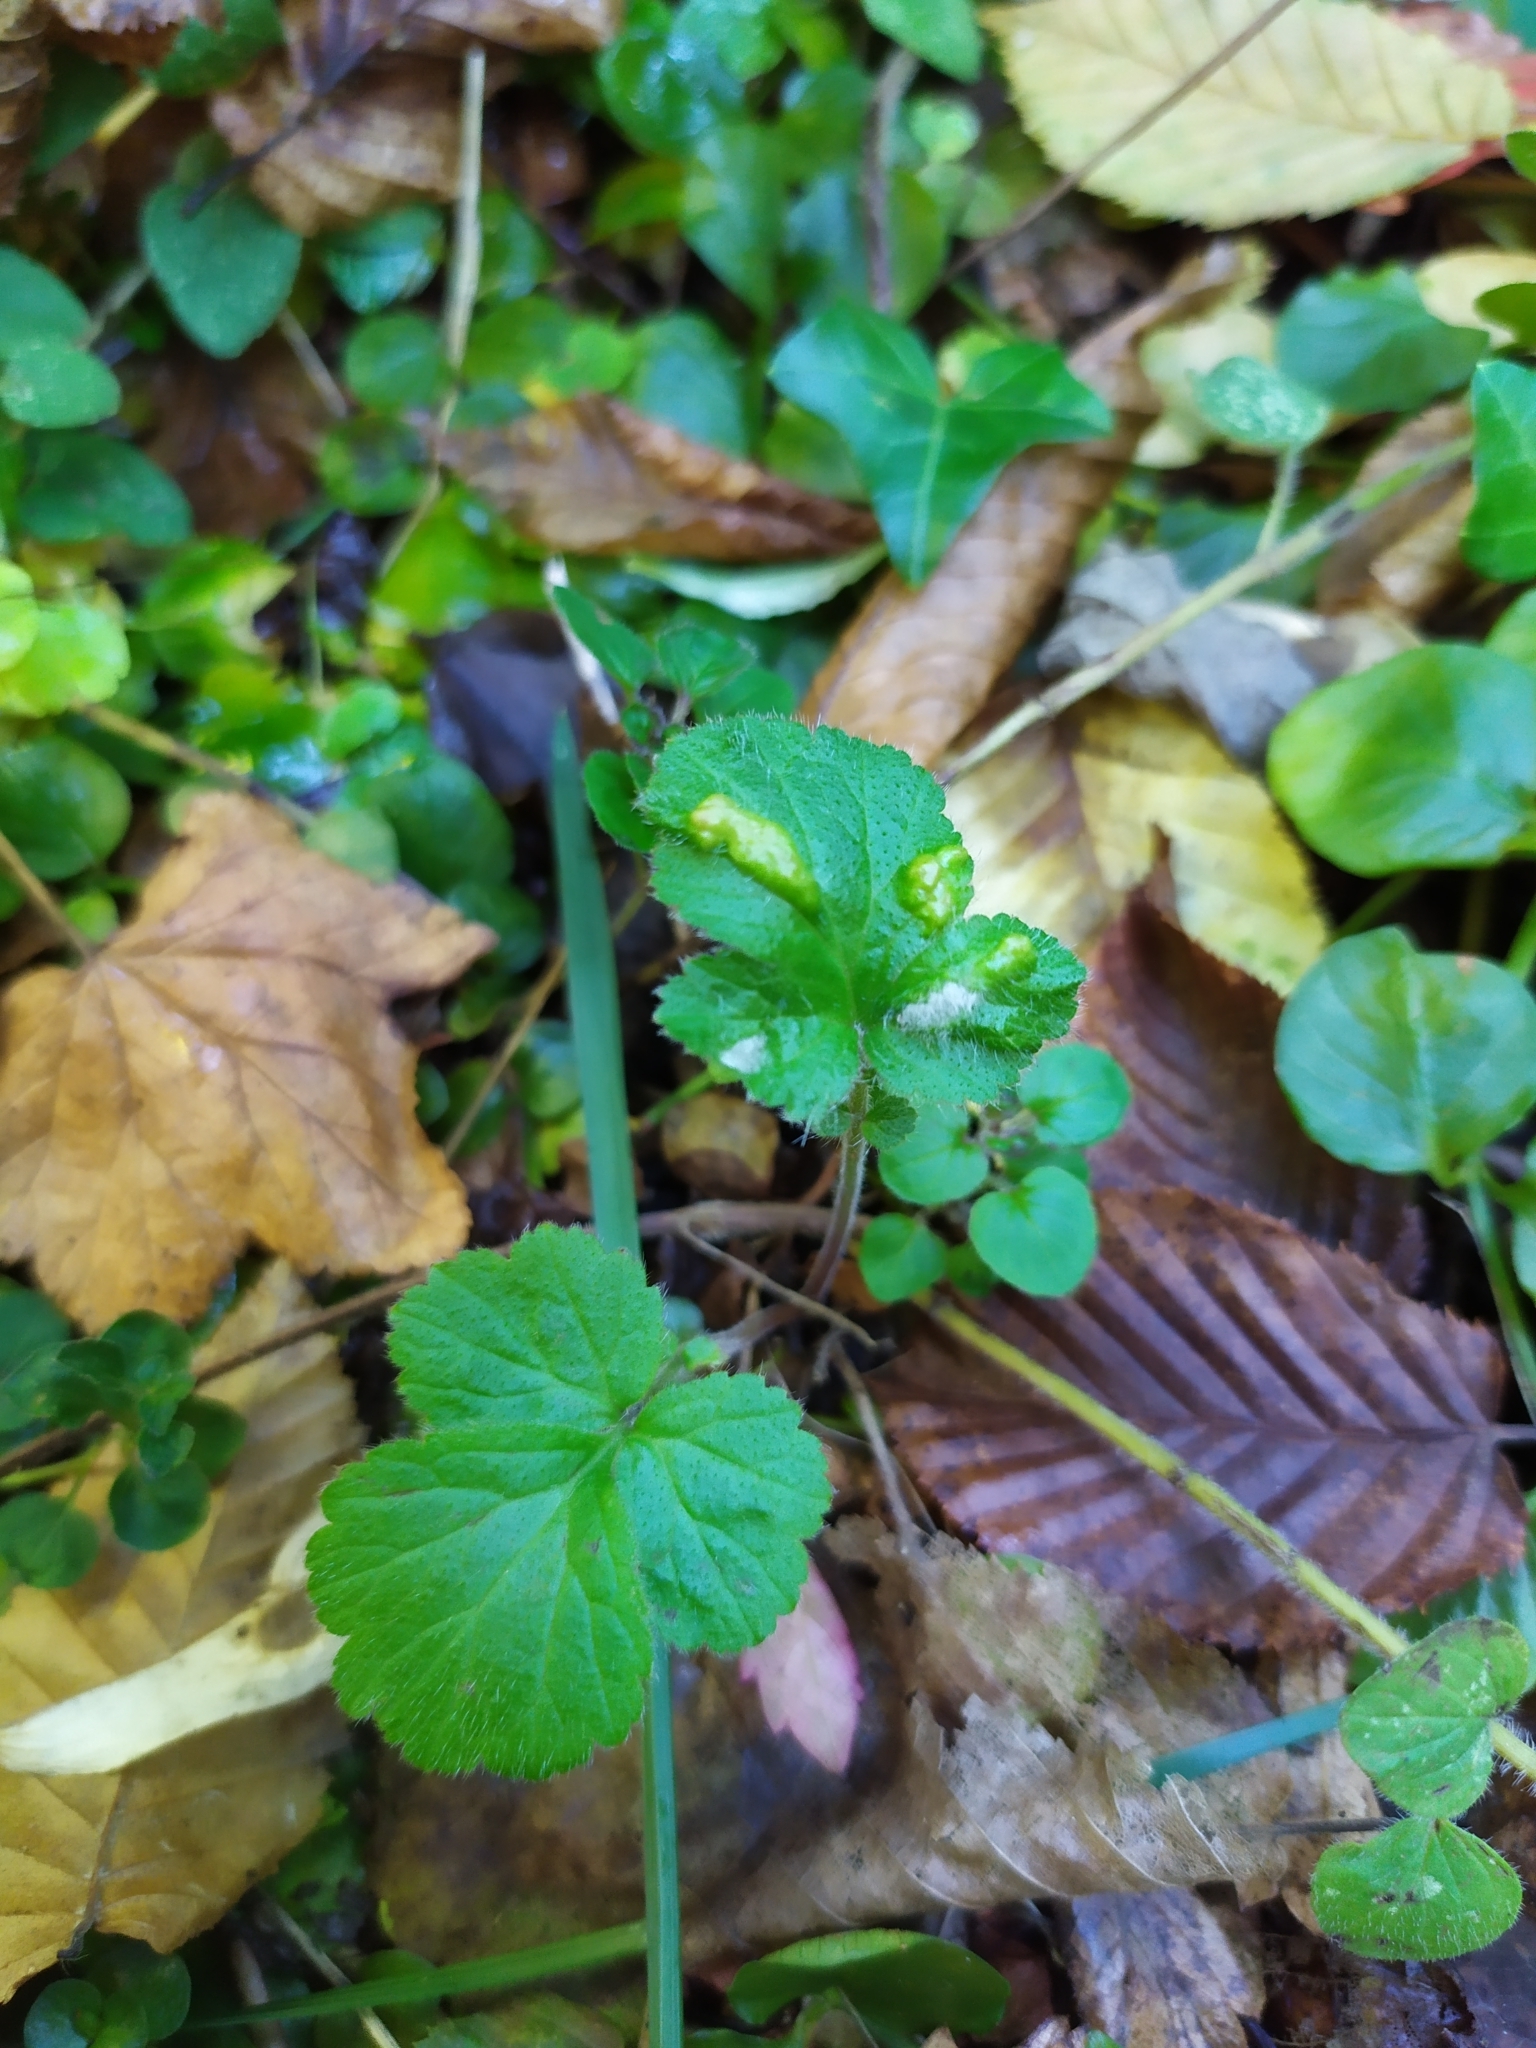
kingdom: Animalia
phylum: Arthropoda
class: Arachnida
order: Trombidiformes
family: Eriophyidae
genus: Cecidophyes
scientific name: Cecidophyes nudus
